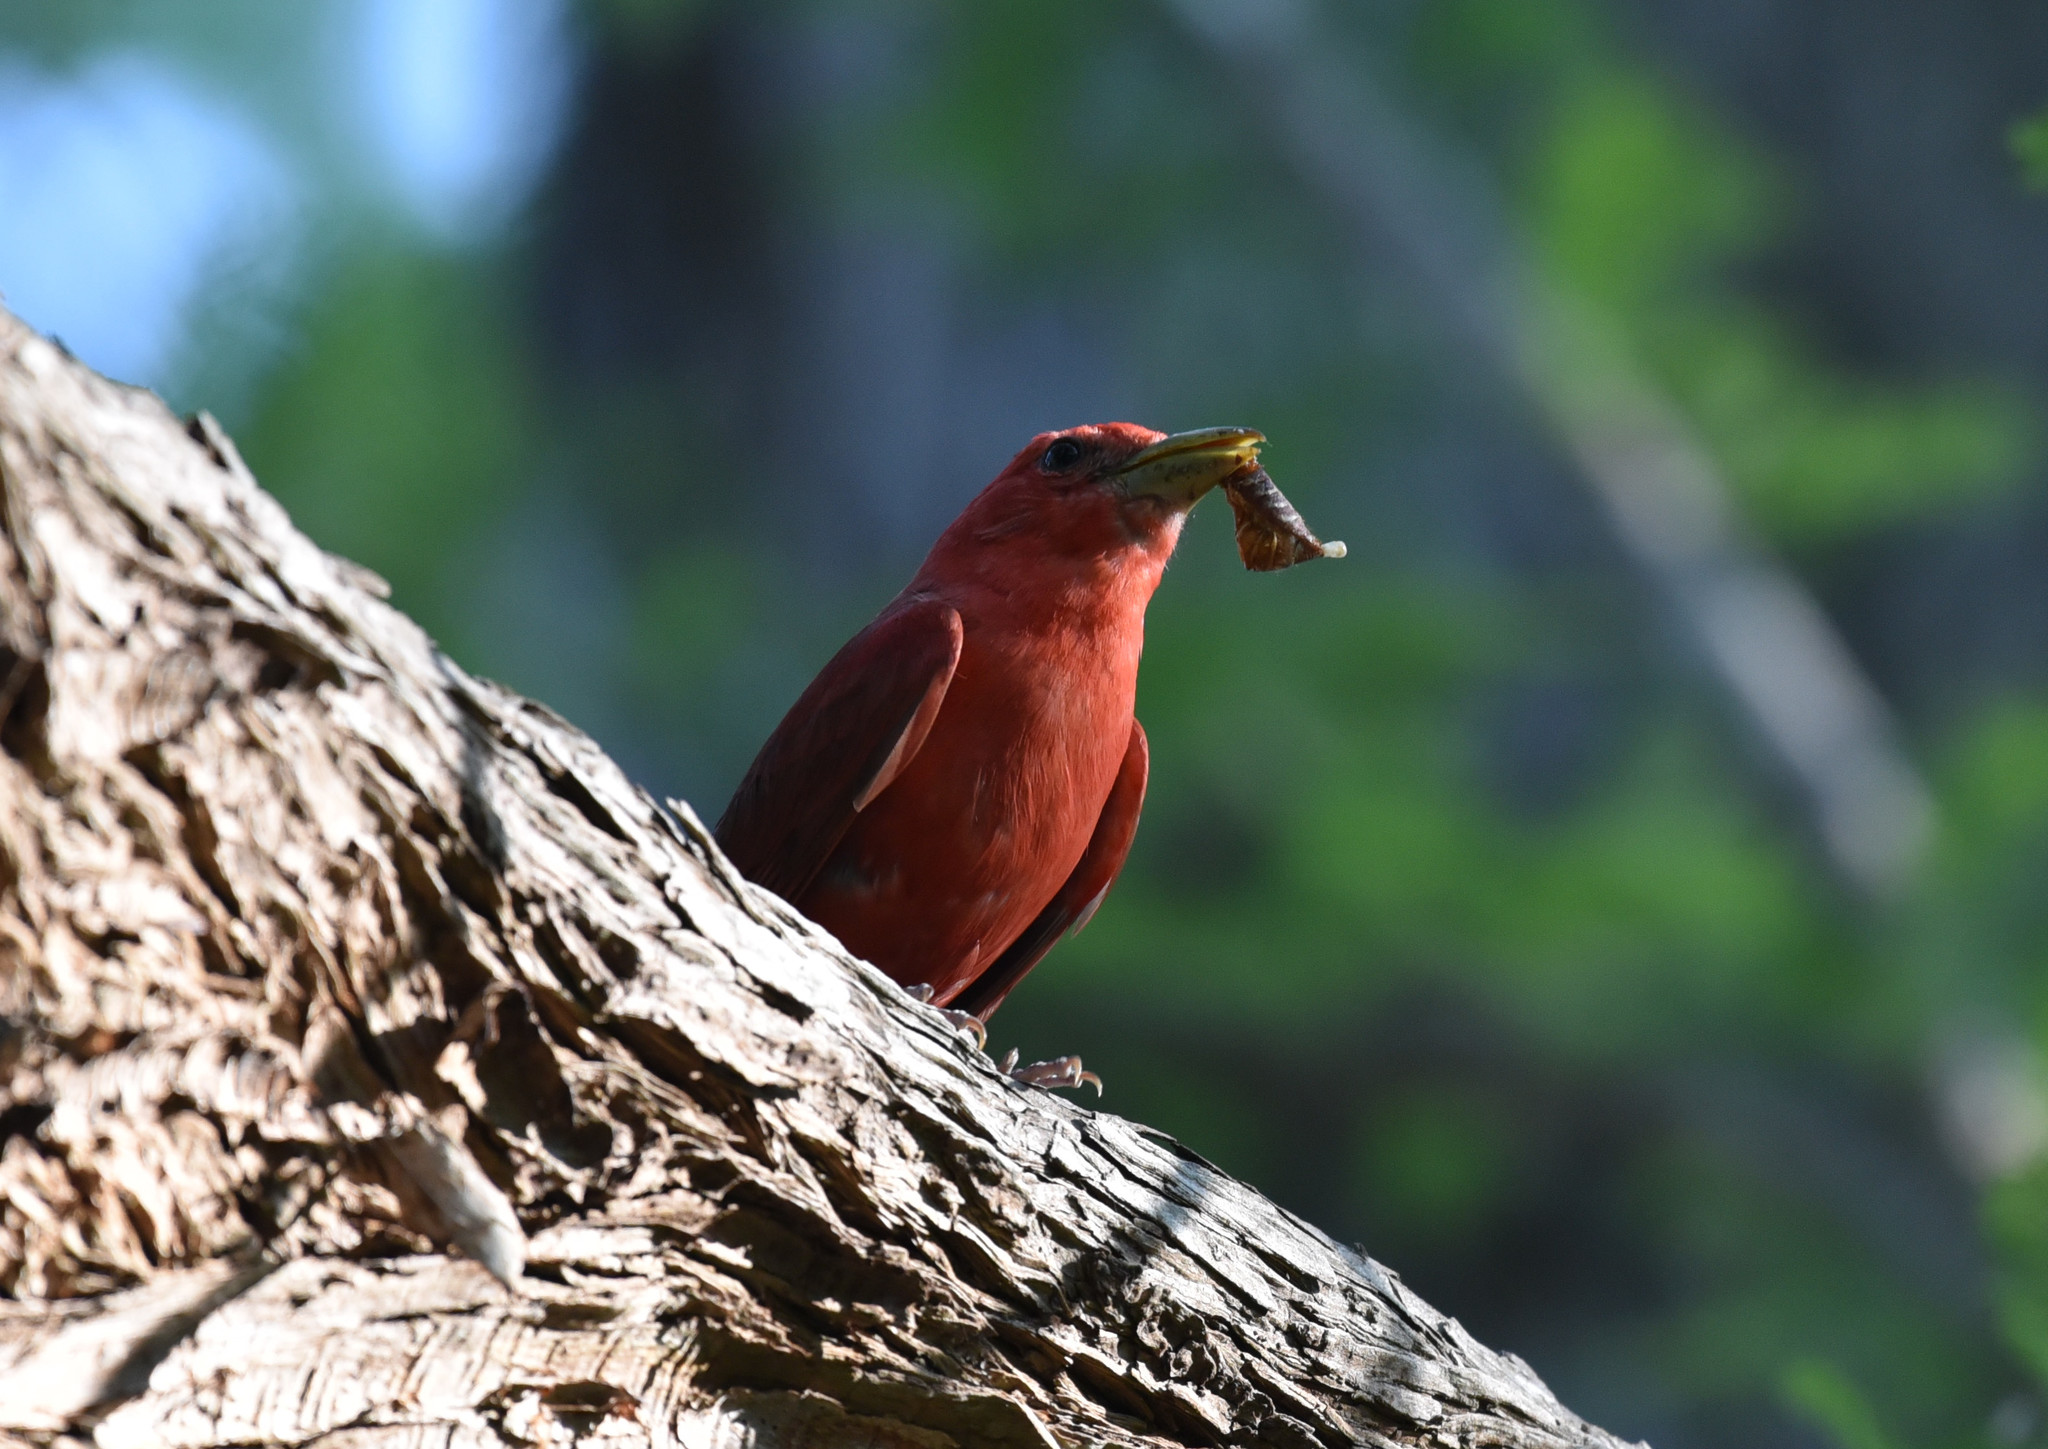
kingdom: Animalia
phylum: Chordata
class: Aves
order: Passeriformes
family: Cardinalidae
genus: Piranga
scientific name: Piranga rubra
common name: Summer tanager
